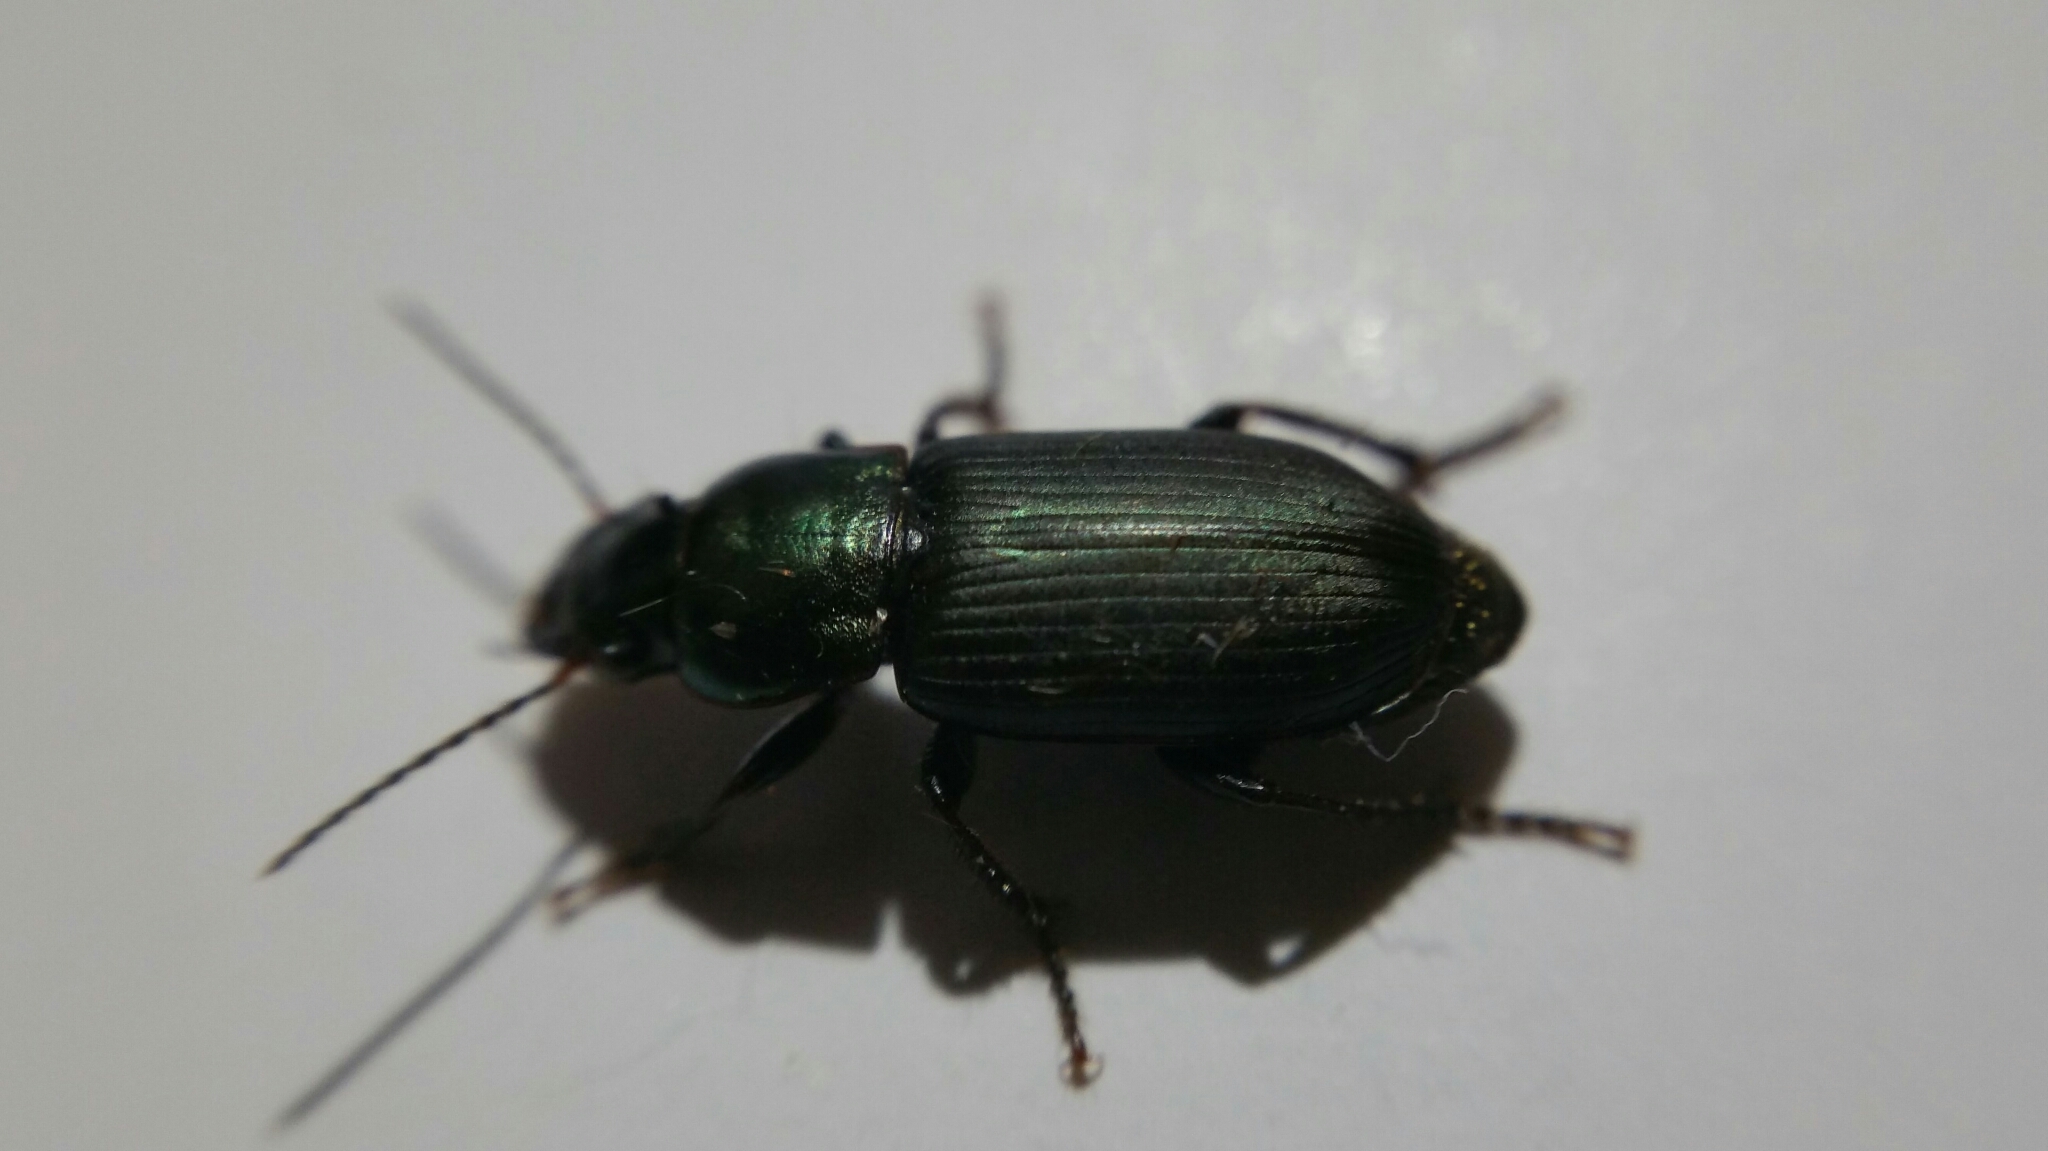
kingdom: Animalia
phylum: Arthropoda
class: Insecta
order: Coleoptera
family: Carabidae
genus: Harpalus
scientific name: Harpalus distinguendus
